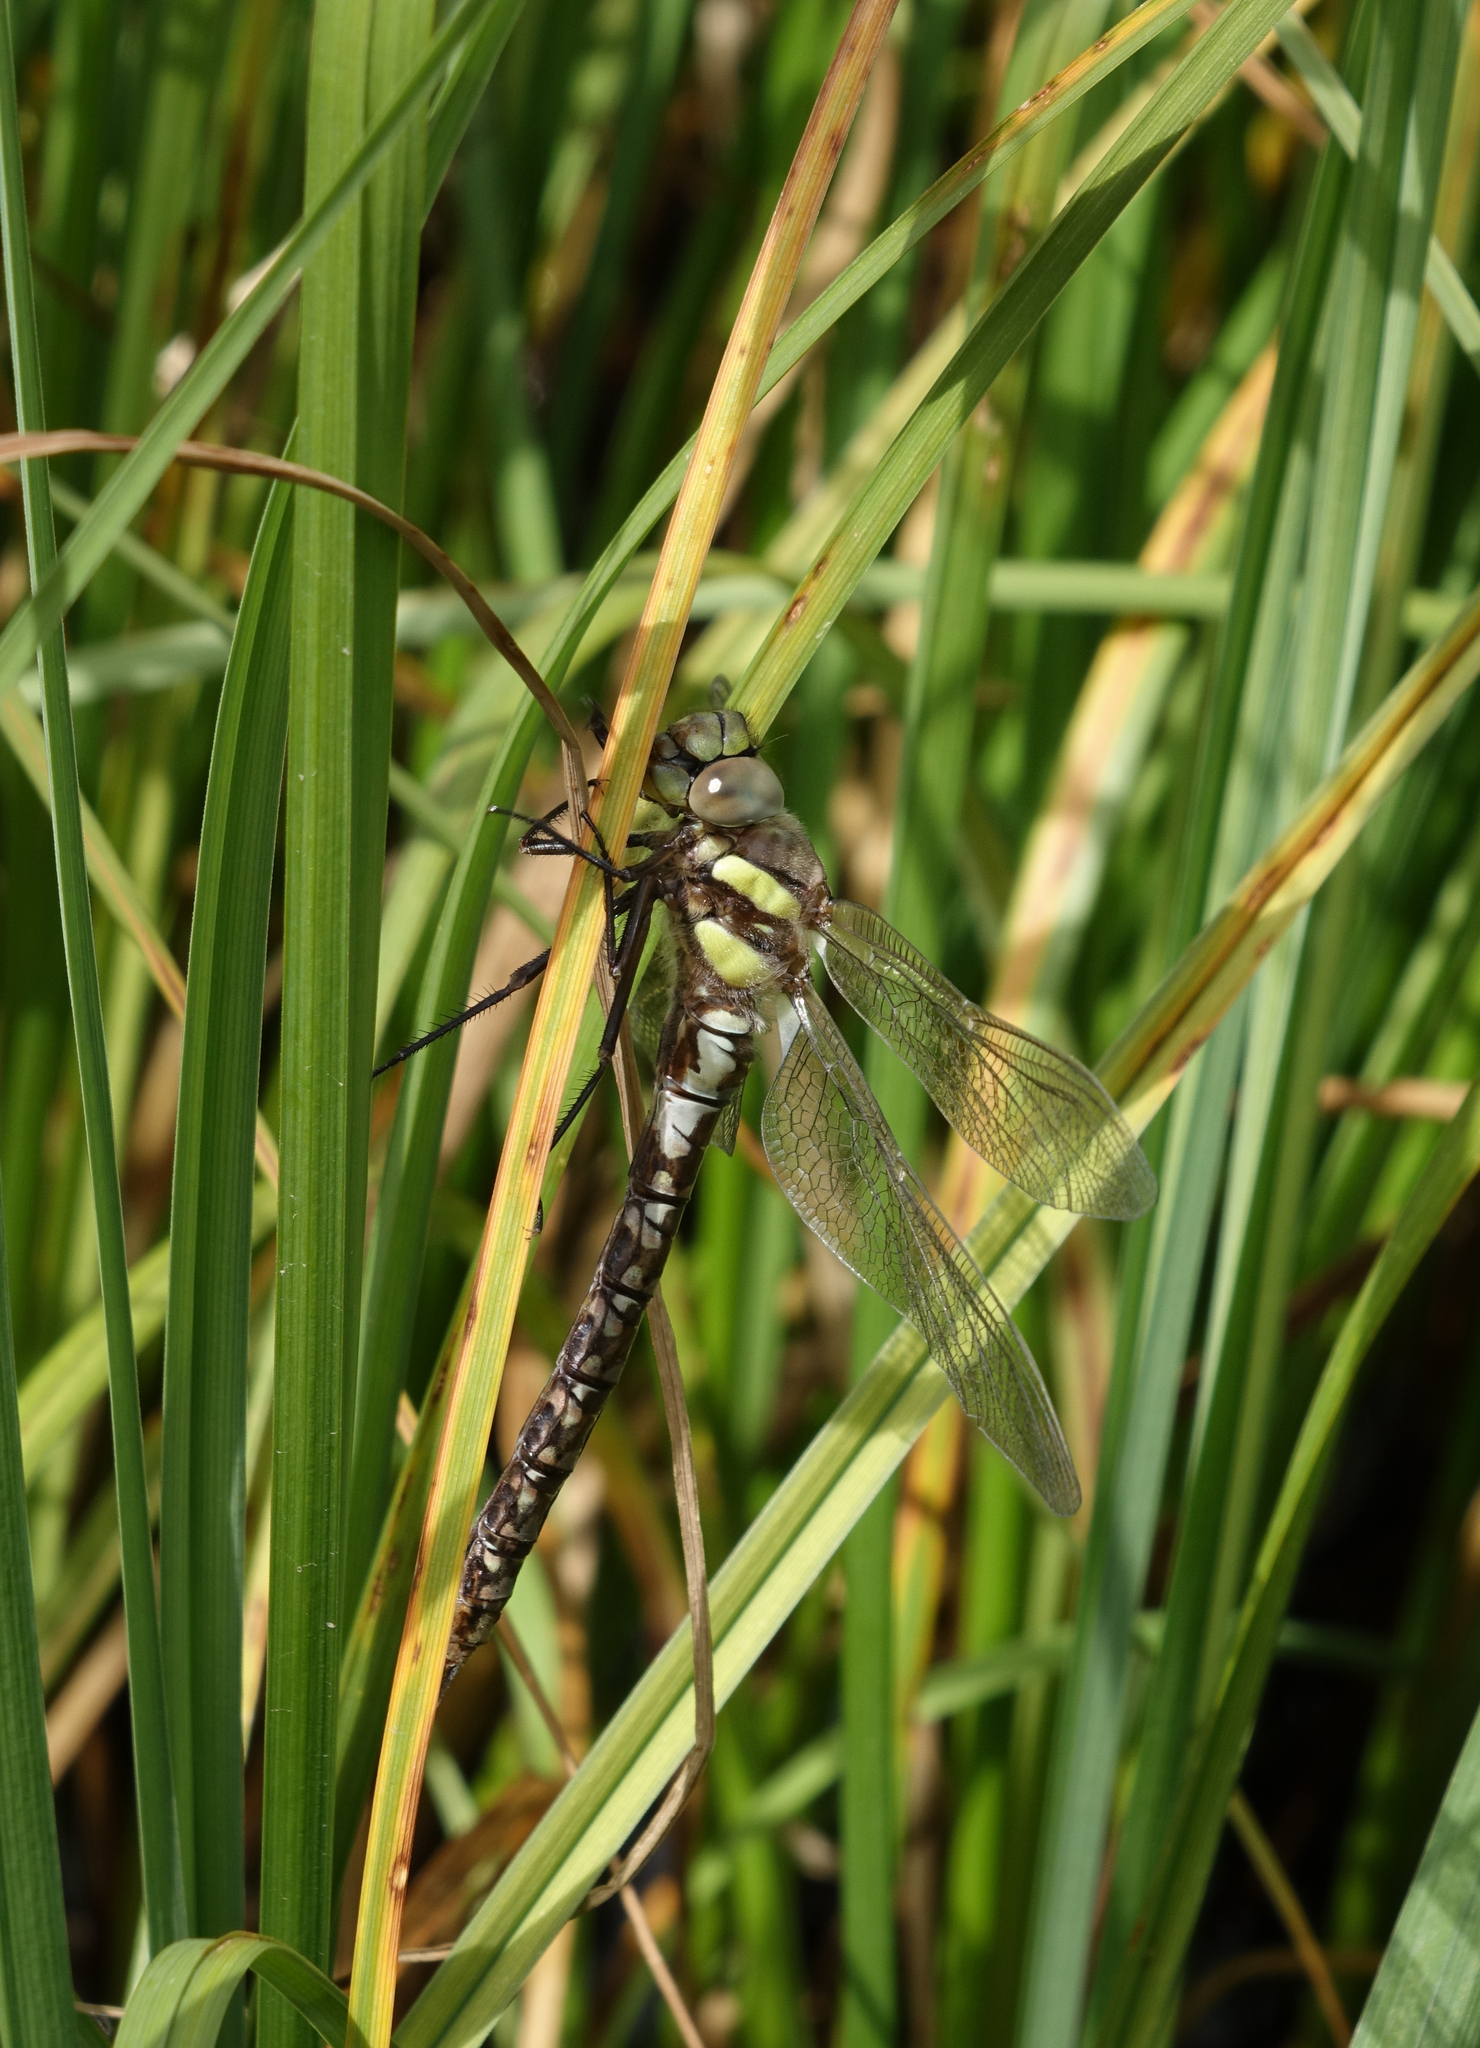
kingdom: Animalia
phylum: Arthropoda
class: Insecta
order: Odonata
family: Aeshnidae
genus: Aeshna
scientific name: Aeshna juncea
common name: Moorland hawker
